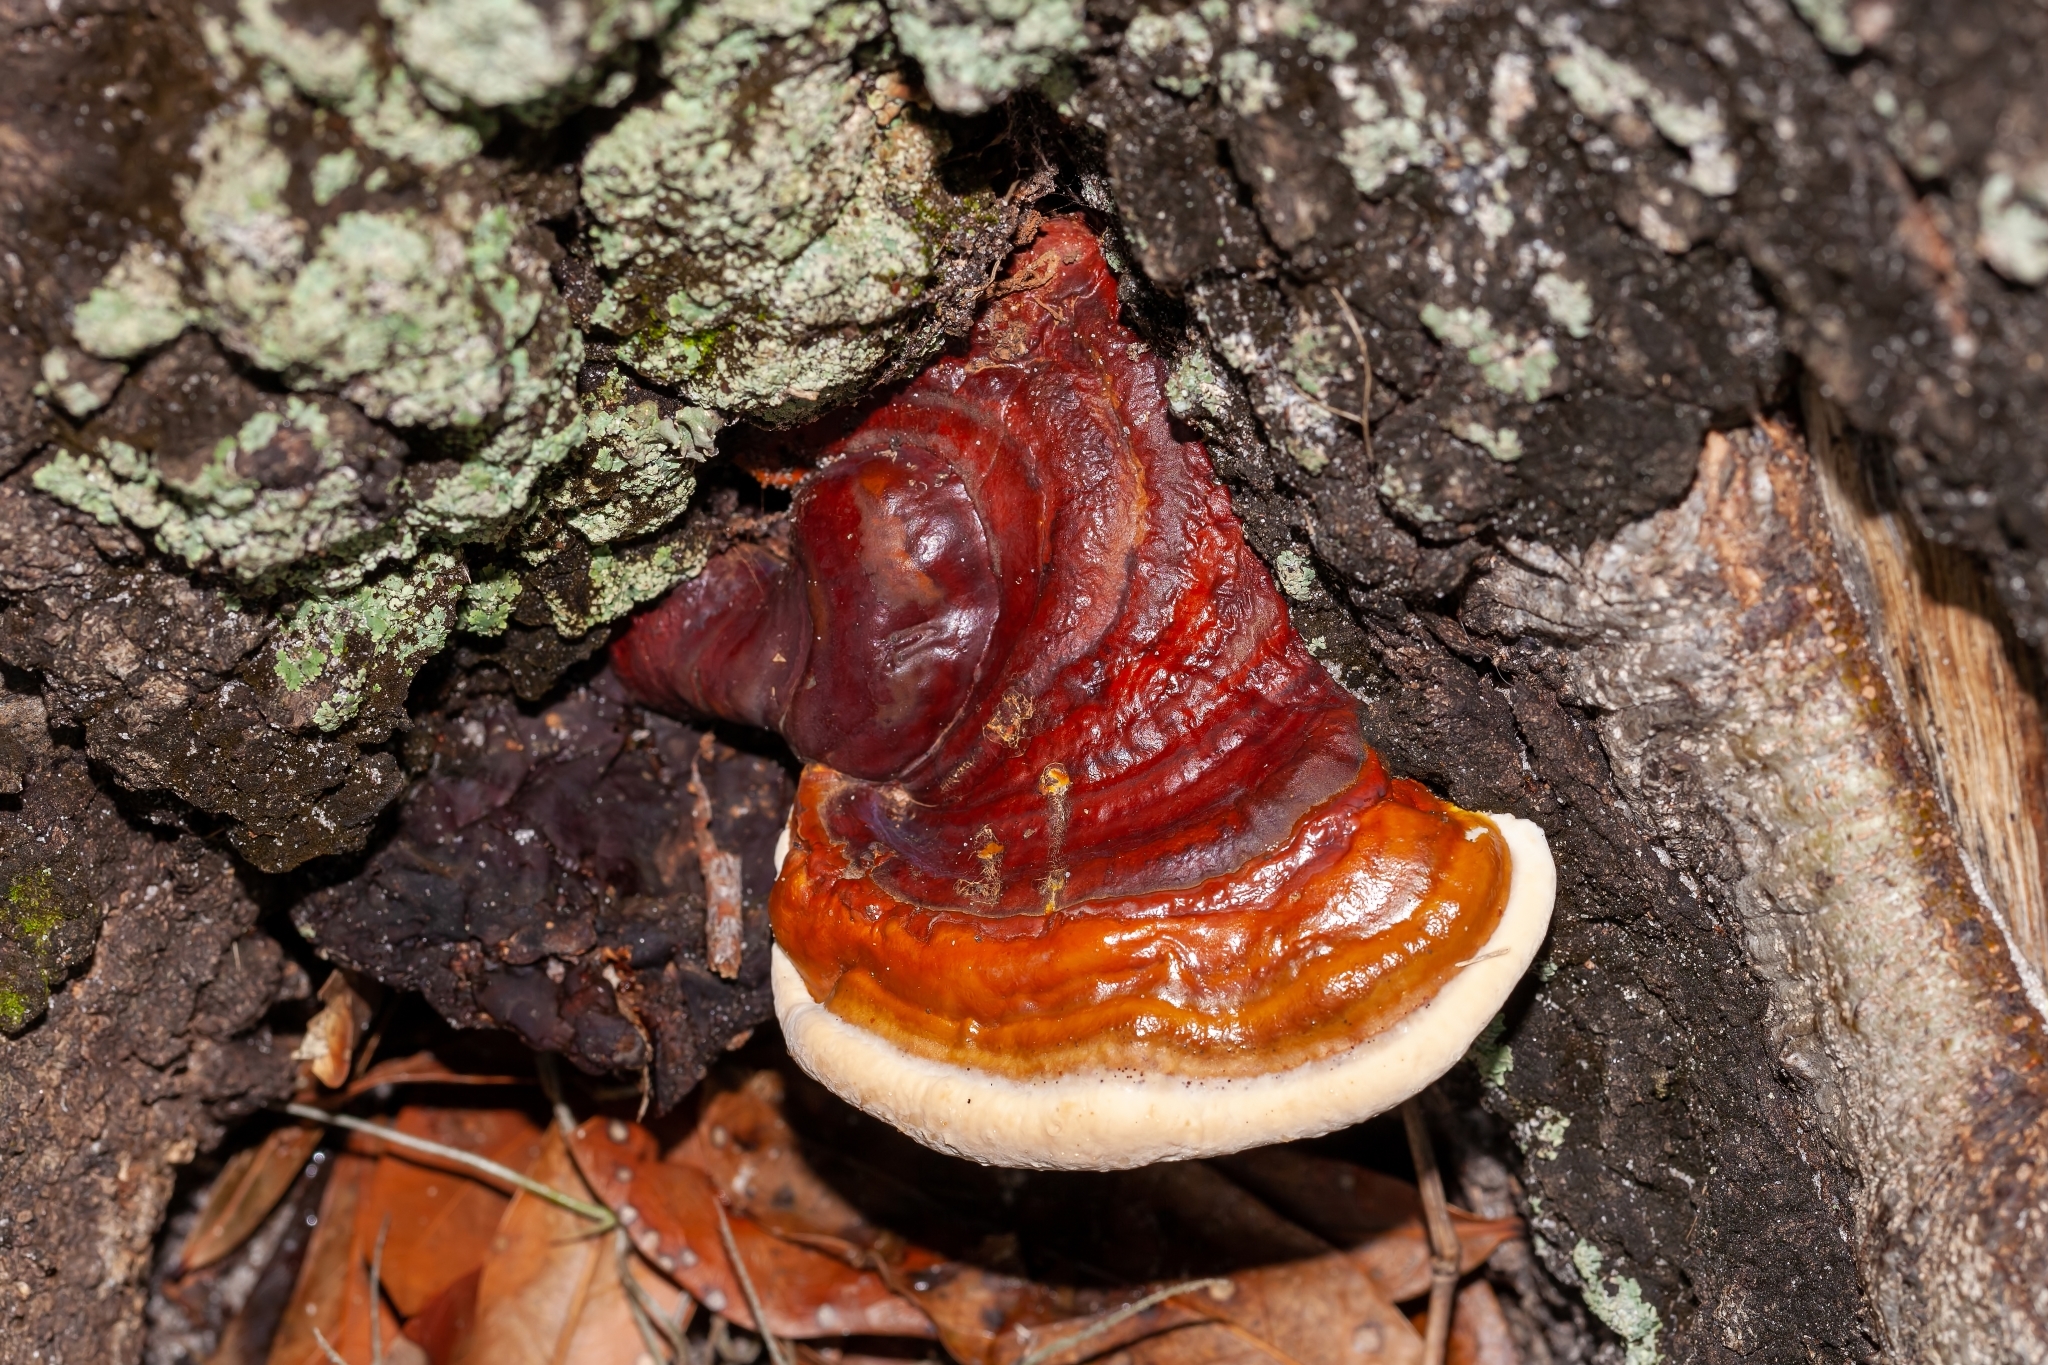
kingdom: Fungi
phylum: Basidiomycota
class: Agaricomycetes
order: Polyporales
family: Polyporaceae
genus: Ganoderma
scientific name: Ganoderma resinaceum
